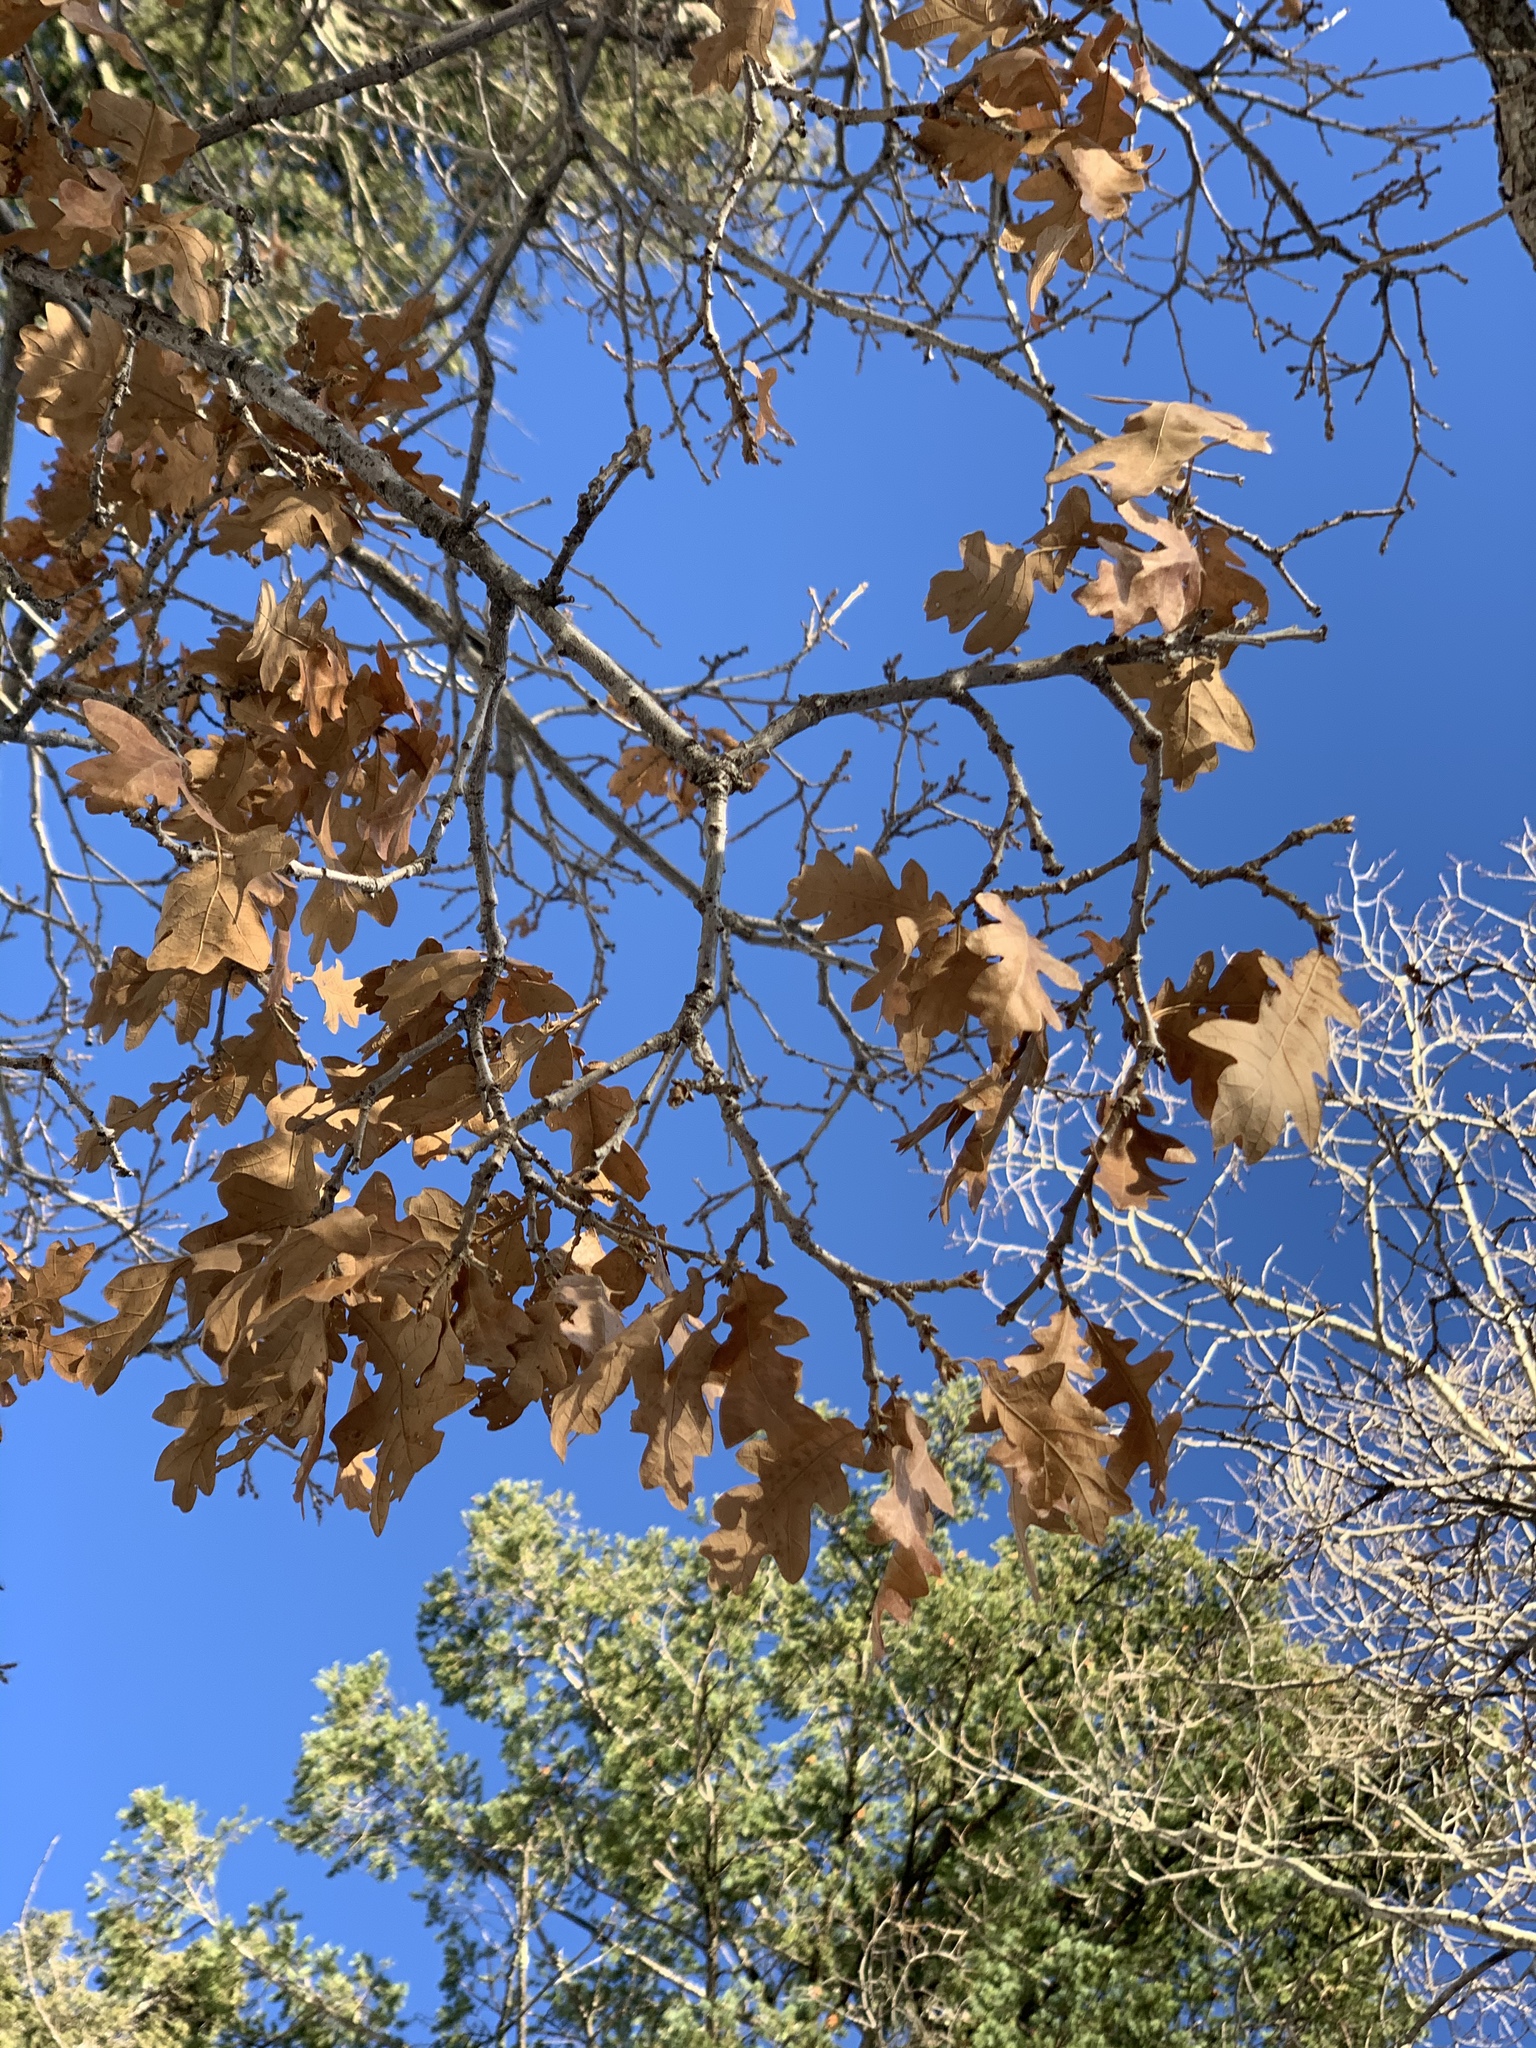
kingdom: Plantae
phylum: Tracheophyta
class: Magnoliopsida
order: Fagales
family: Fagaceae
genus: Quercus
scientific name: Quercus gambelii
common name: Gambel oak
